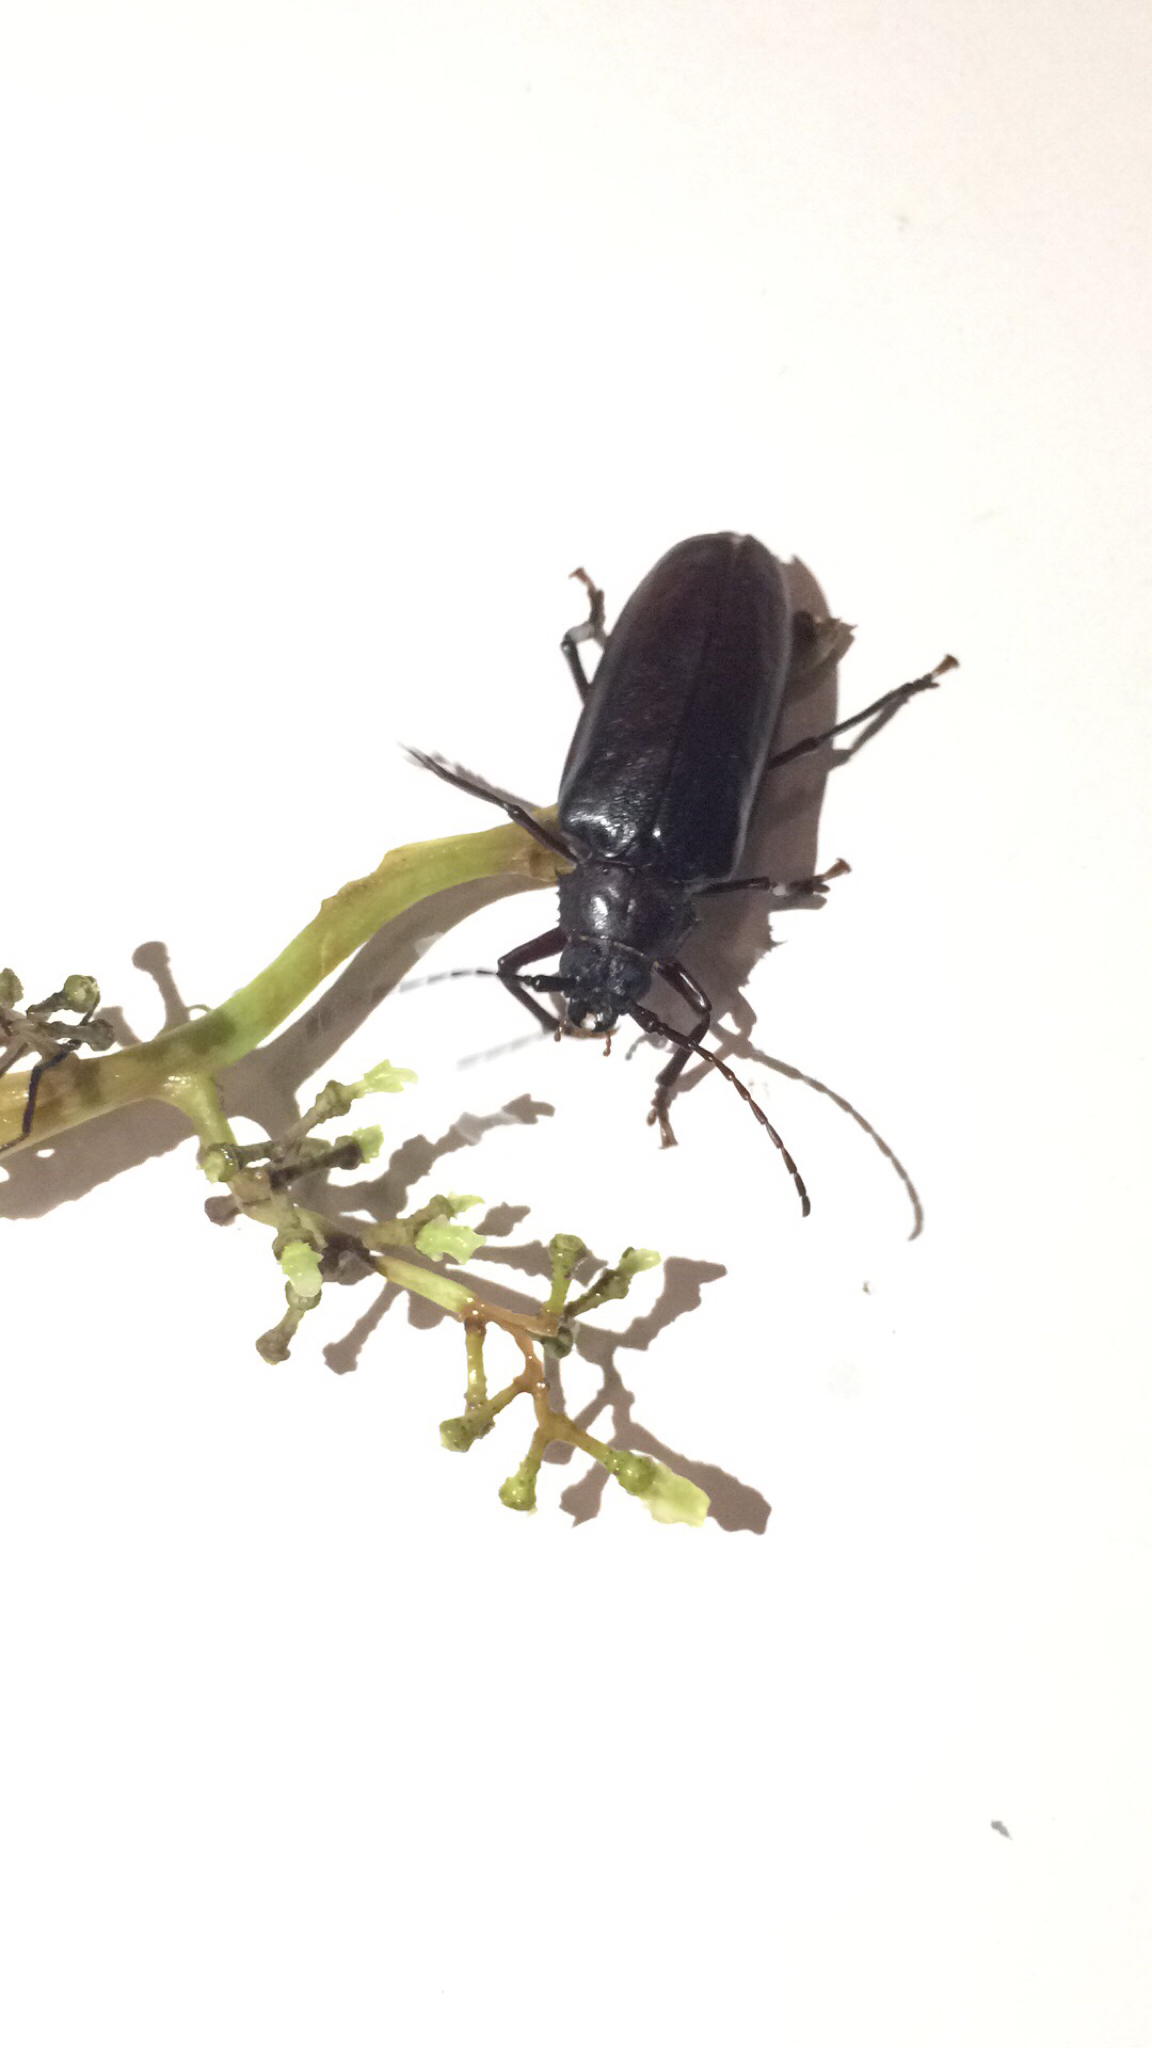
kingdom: Animalia
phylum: Arthropoda
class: Insecta
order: Coleoptera
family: Cerambycidae
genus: Rhaesus
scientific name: Rhaesus serraticollis
